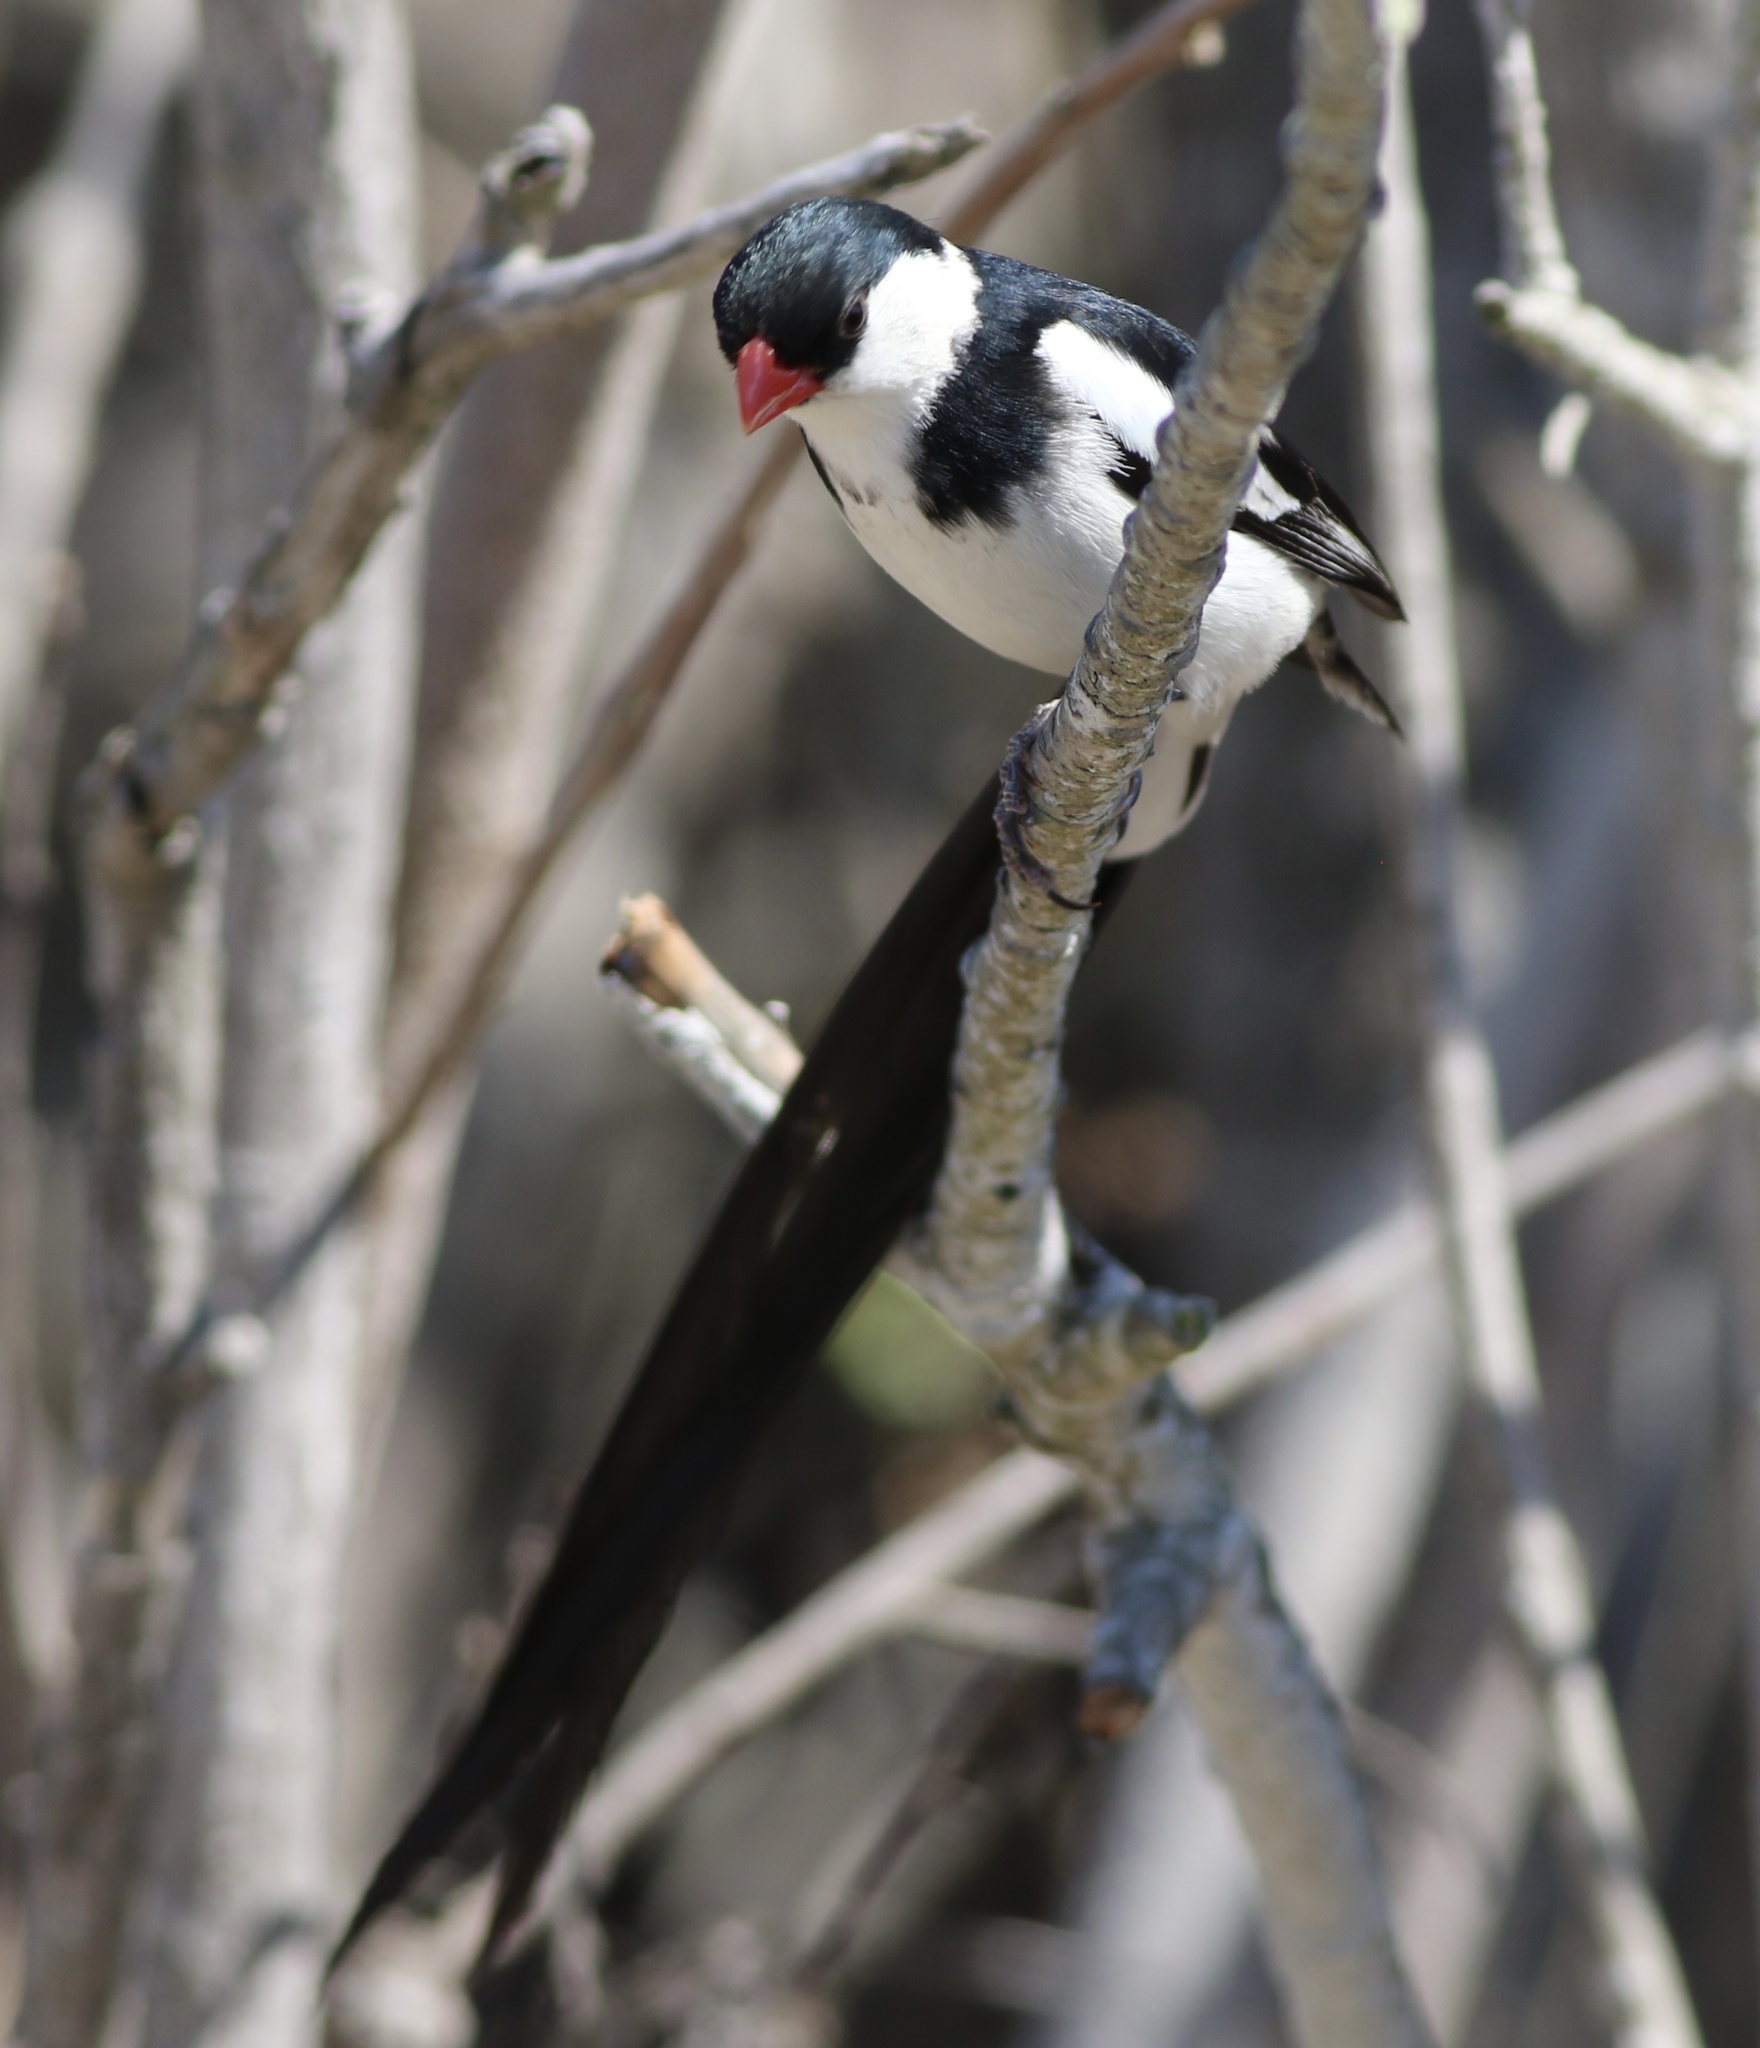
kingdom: Animalia
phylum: Chordata
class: Aves
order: Passeriformes
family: Viduidae
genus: Vidua
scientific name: Vidua macroura
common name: Pin-tailed whydah
